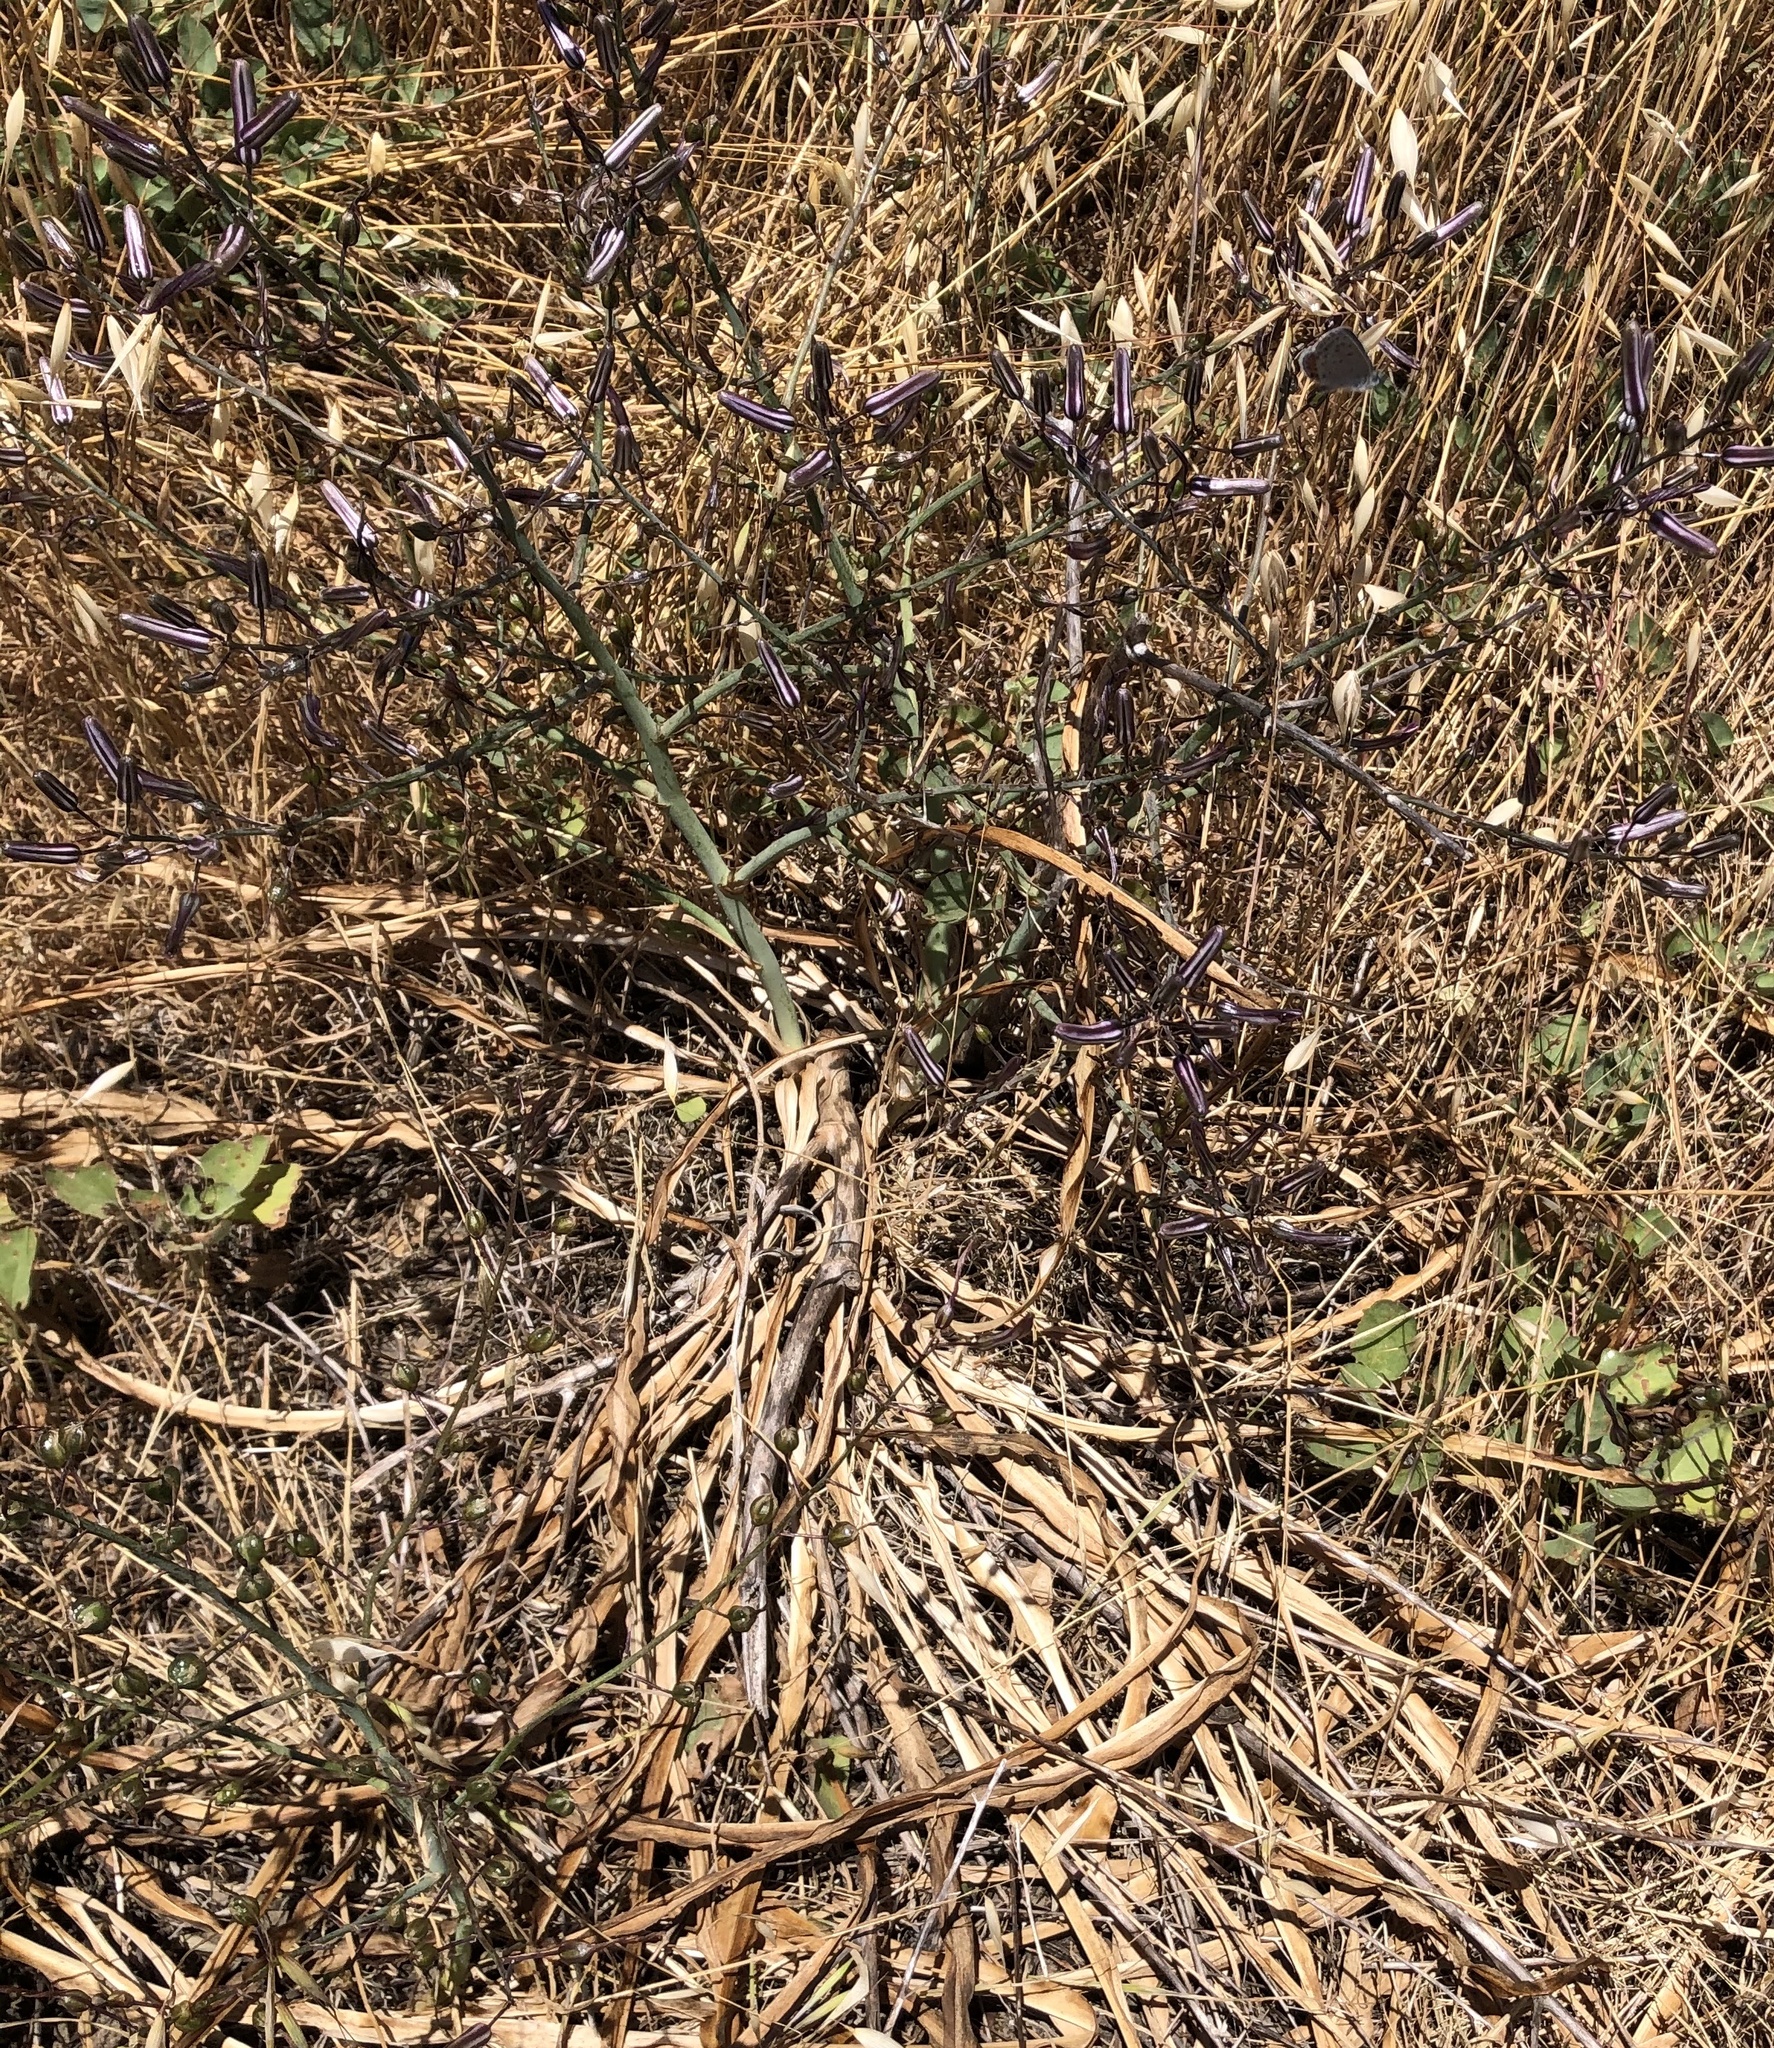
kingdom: Plantae
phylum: Tracheophyta
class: Liliopsida
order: Asparagales
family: Asparagaceae
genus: Chlorogalum
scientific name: Chlorogalum pomeridianum
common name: Amole
